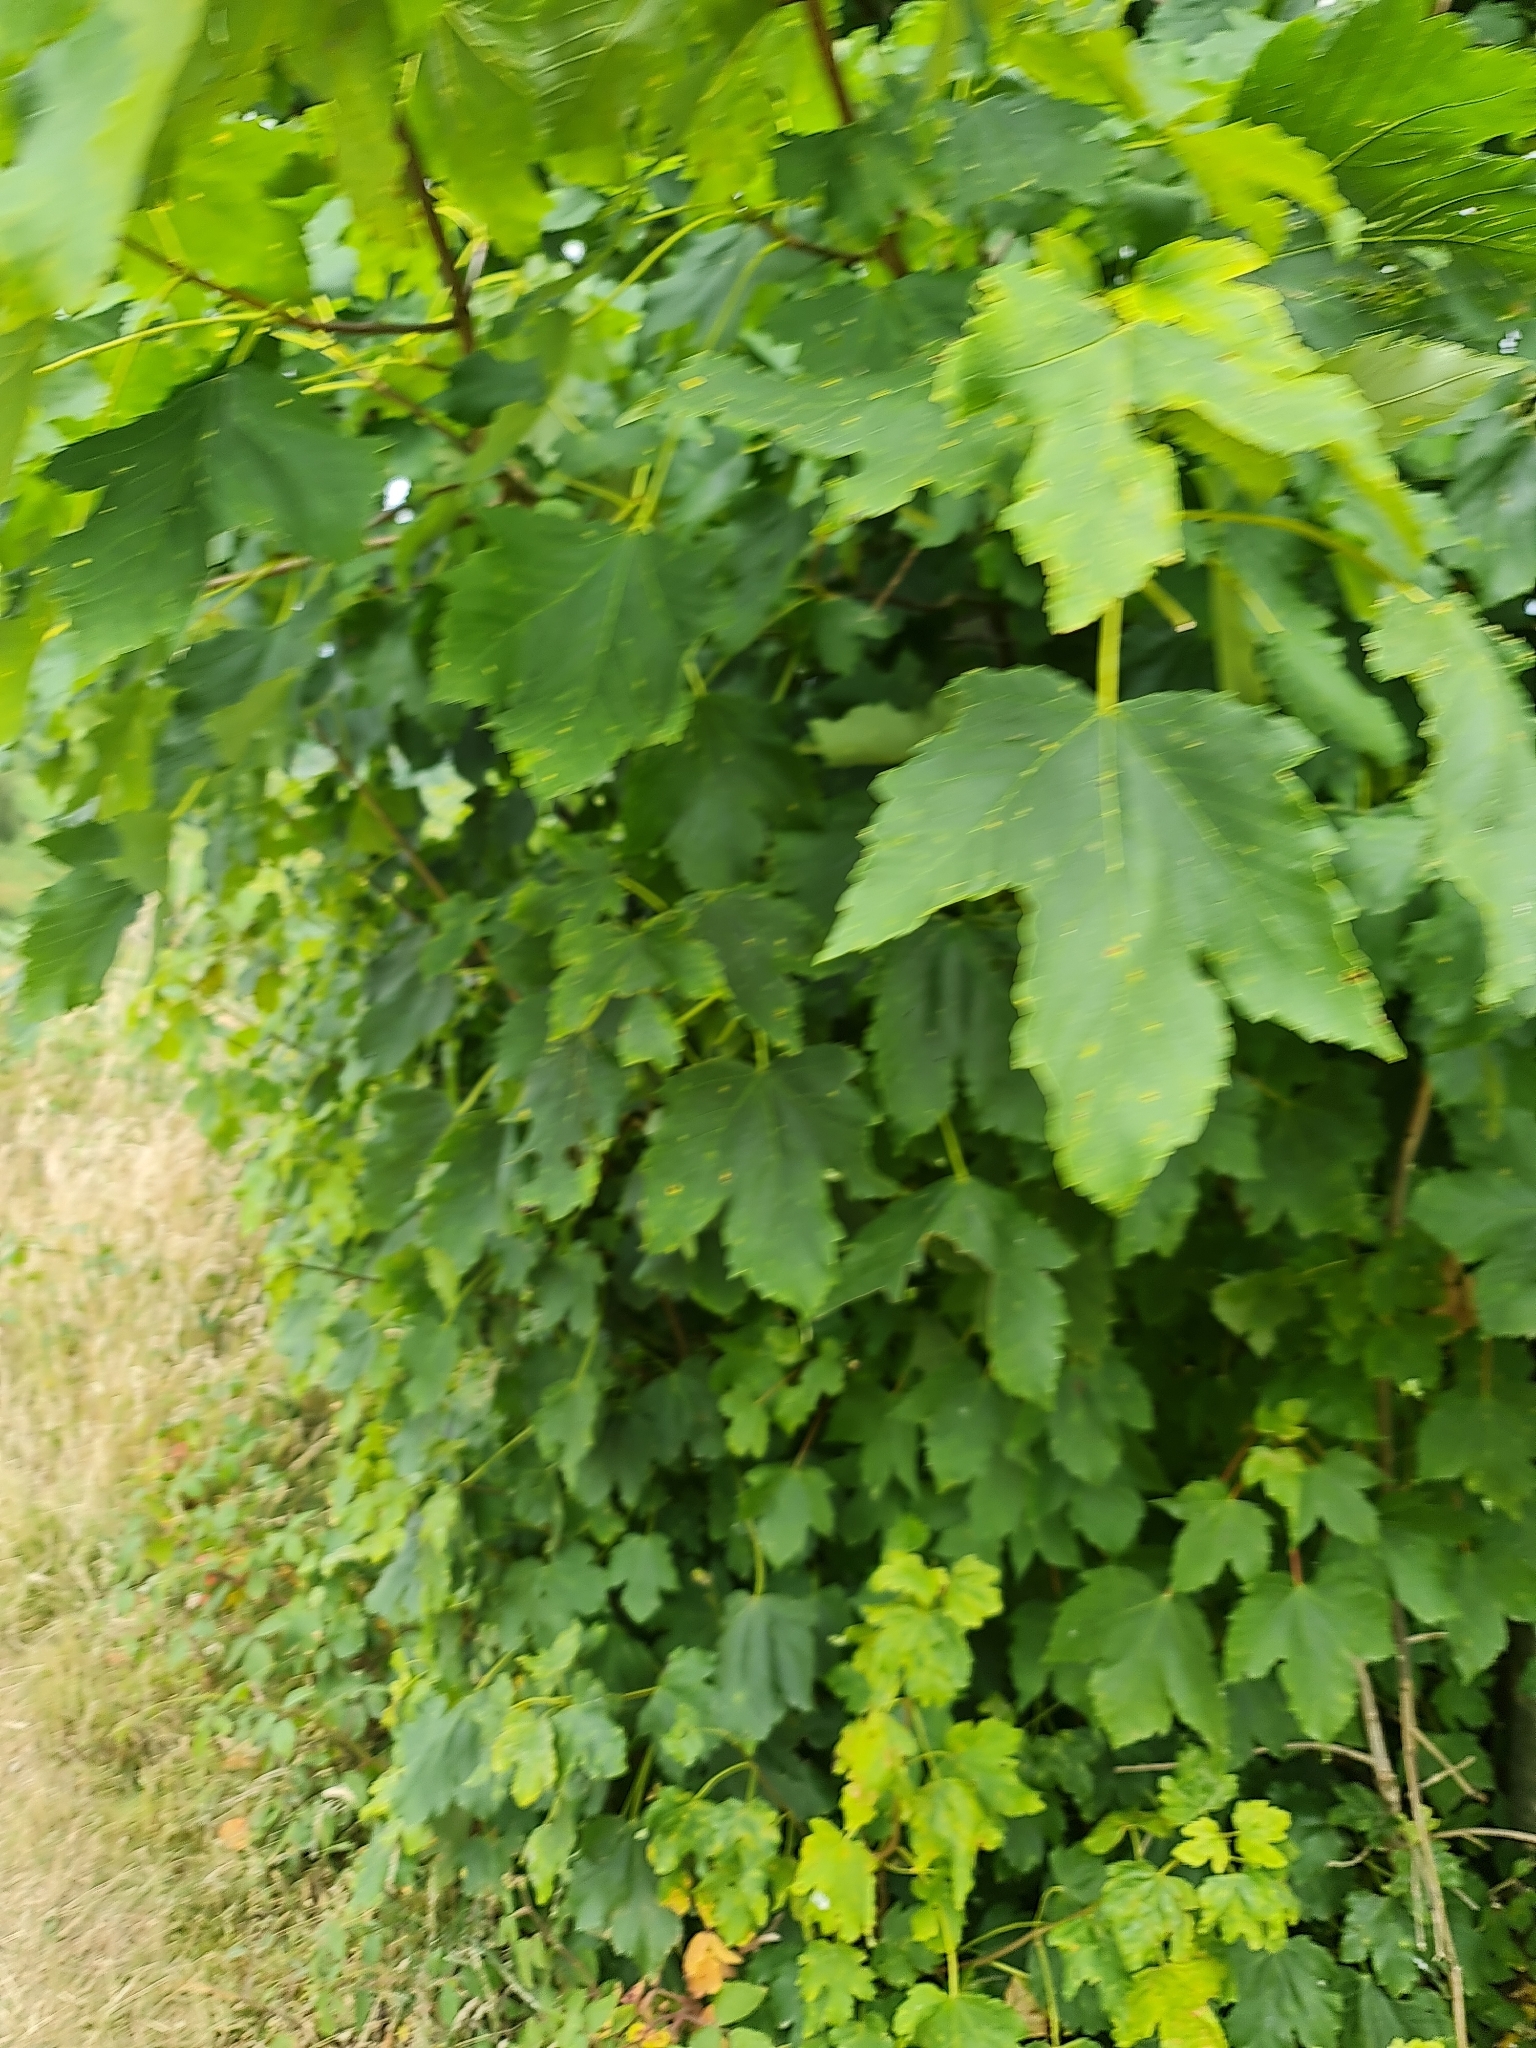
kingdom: Plantae
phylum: Tracheophyta
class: Magnoliopsida
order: Sapindales
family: Sapindaceae
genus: Acer
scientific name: Acer pseudoplatanus
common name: Sycamore
